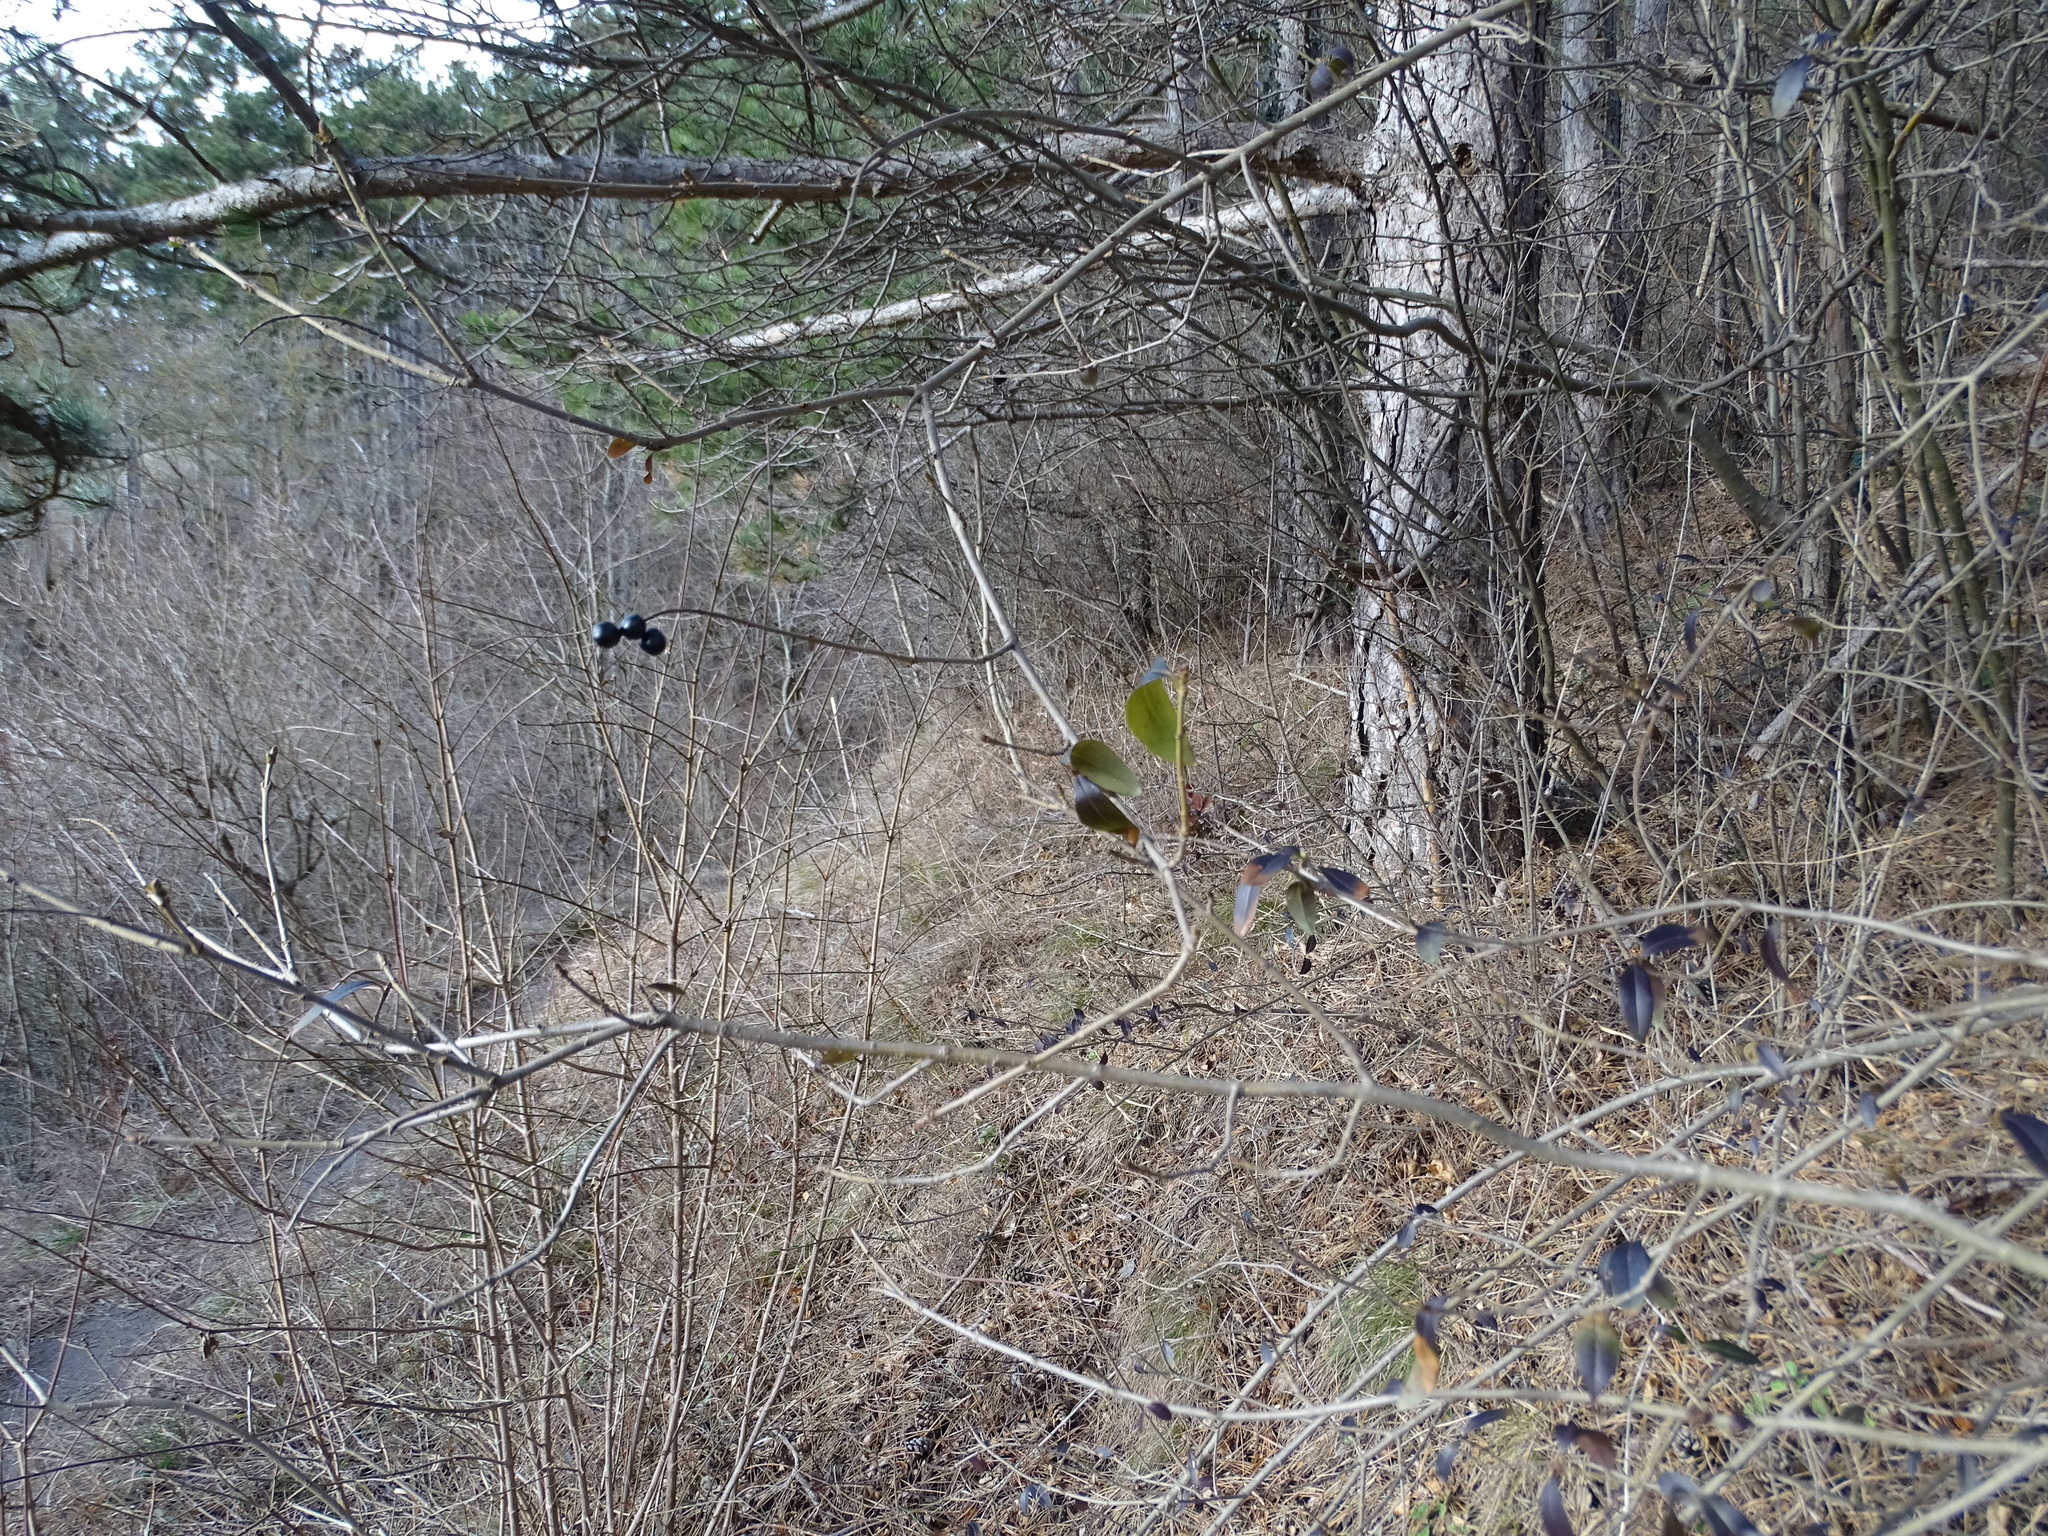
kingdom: Plantae
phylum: Tracheophyta
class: Magnoliopsida
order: Lamiales
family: Oleaceae
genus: Ligustrum
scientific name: Ligustrum vulgare
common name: Wild privet
